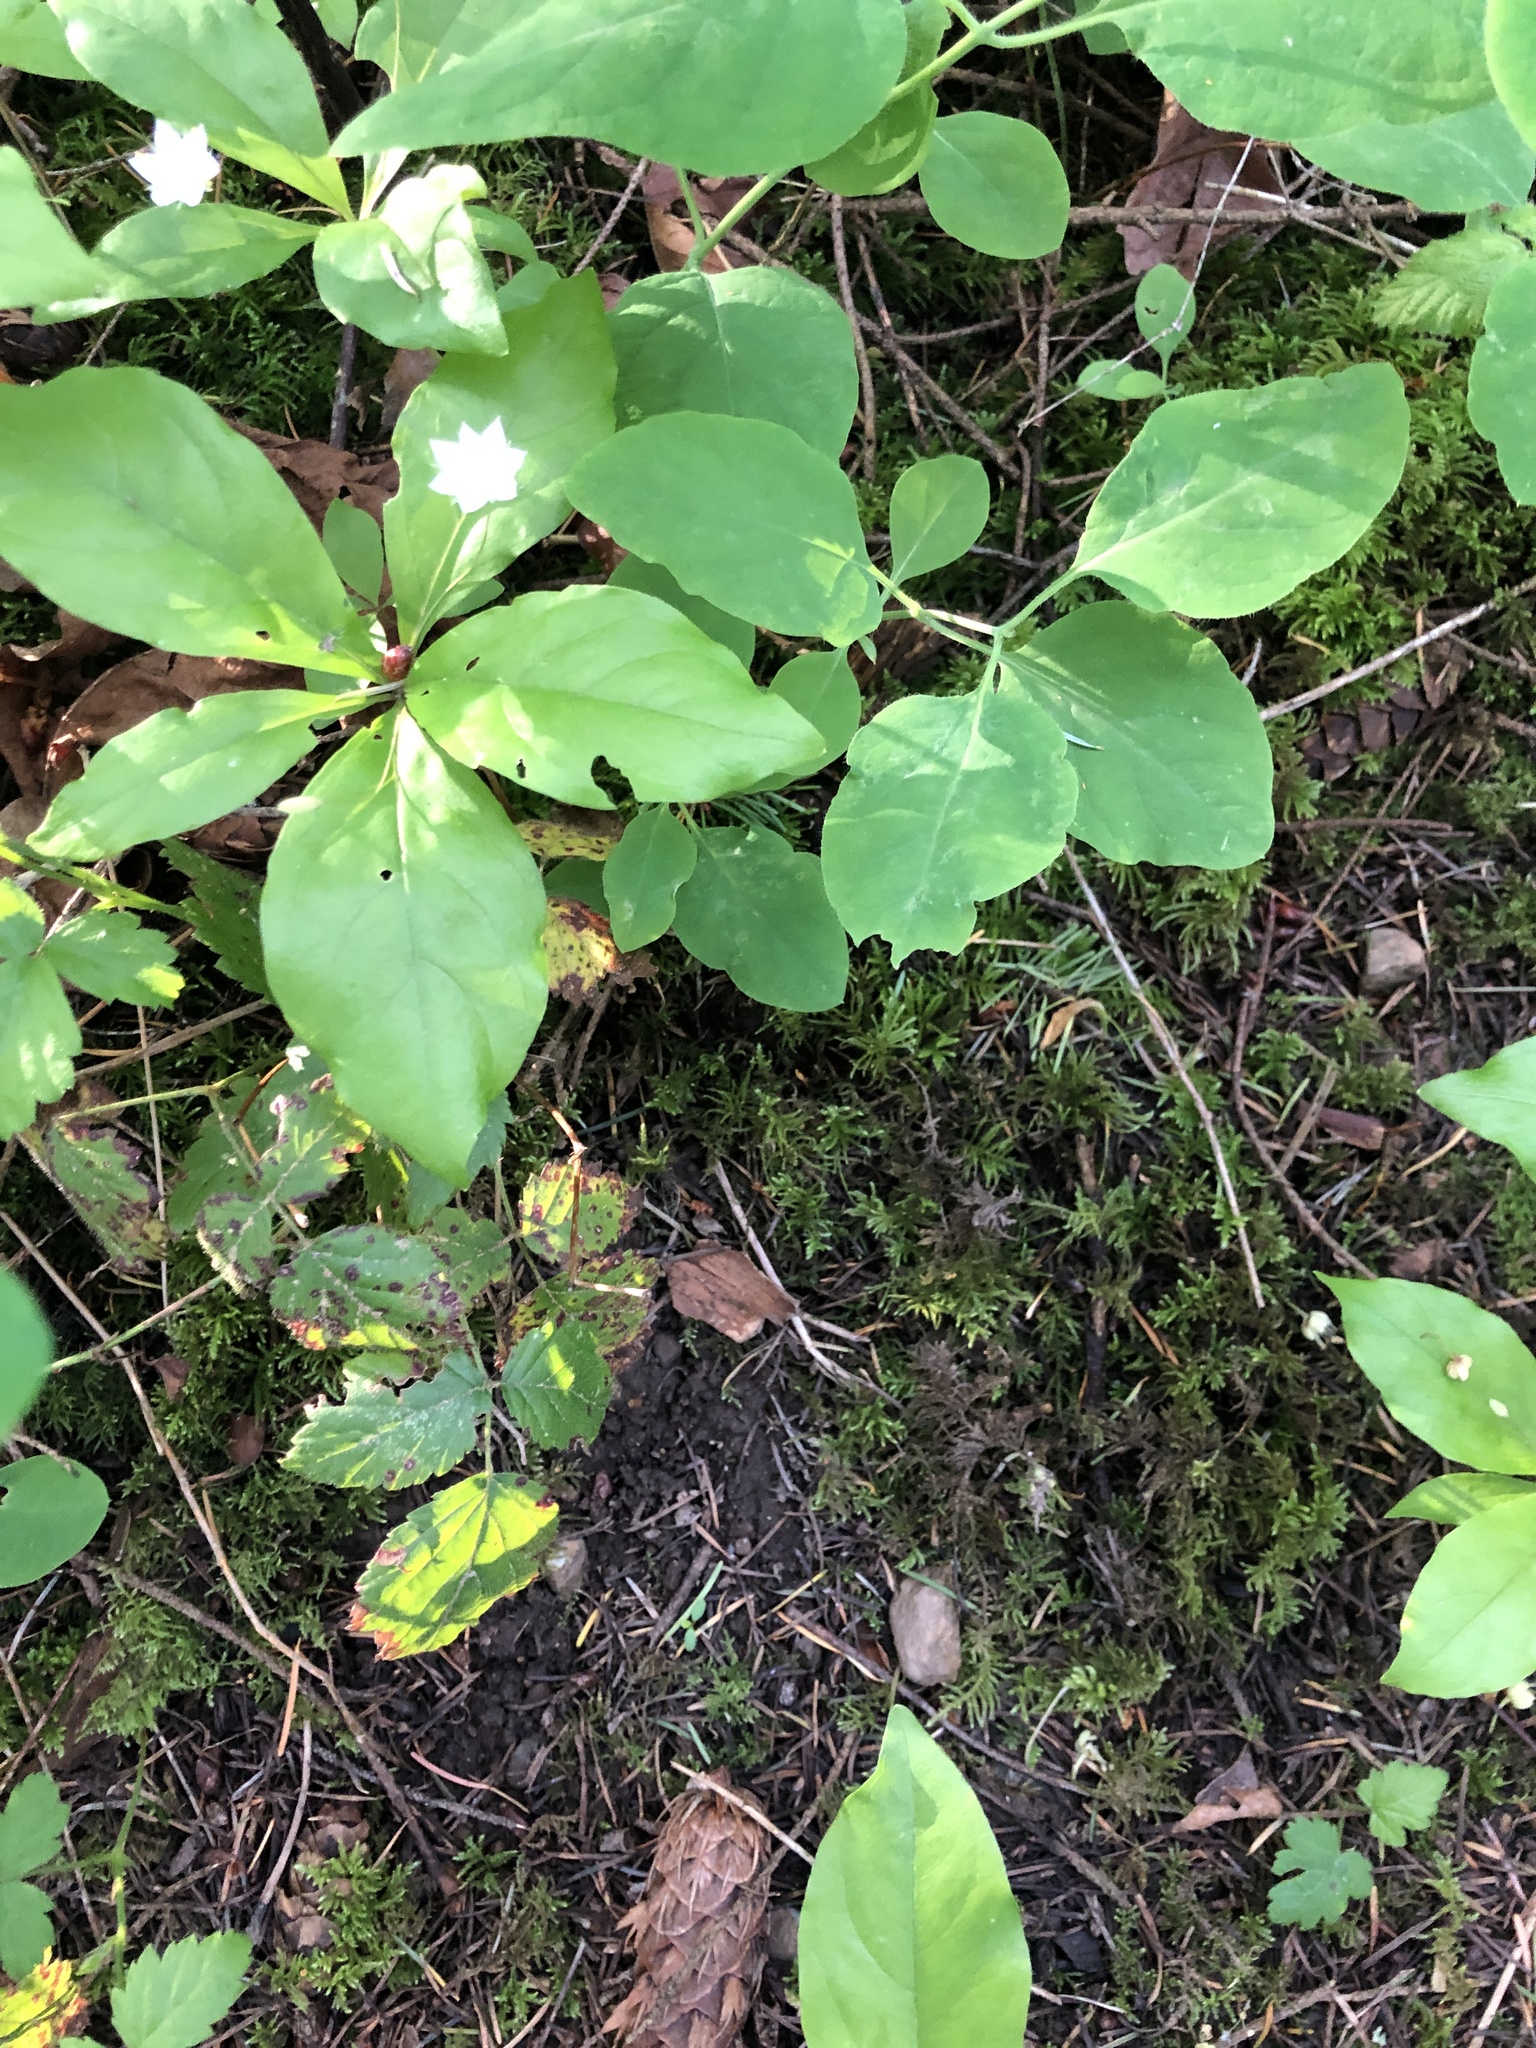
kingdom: Plantae
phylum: Tracheophyta
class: Magnoliopsida
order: Ericales
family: Primulaceae
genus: Lysimachia
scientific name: Lysimachia latifolia
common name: Pacific starflower
